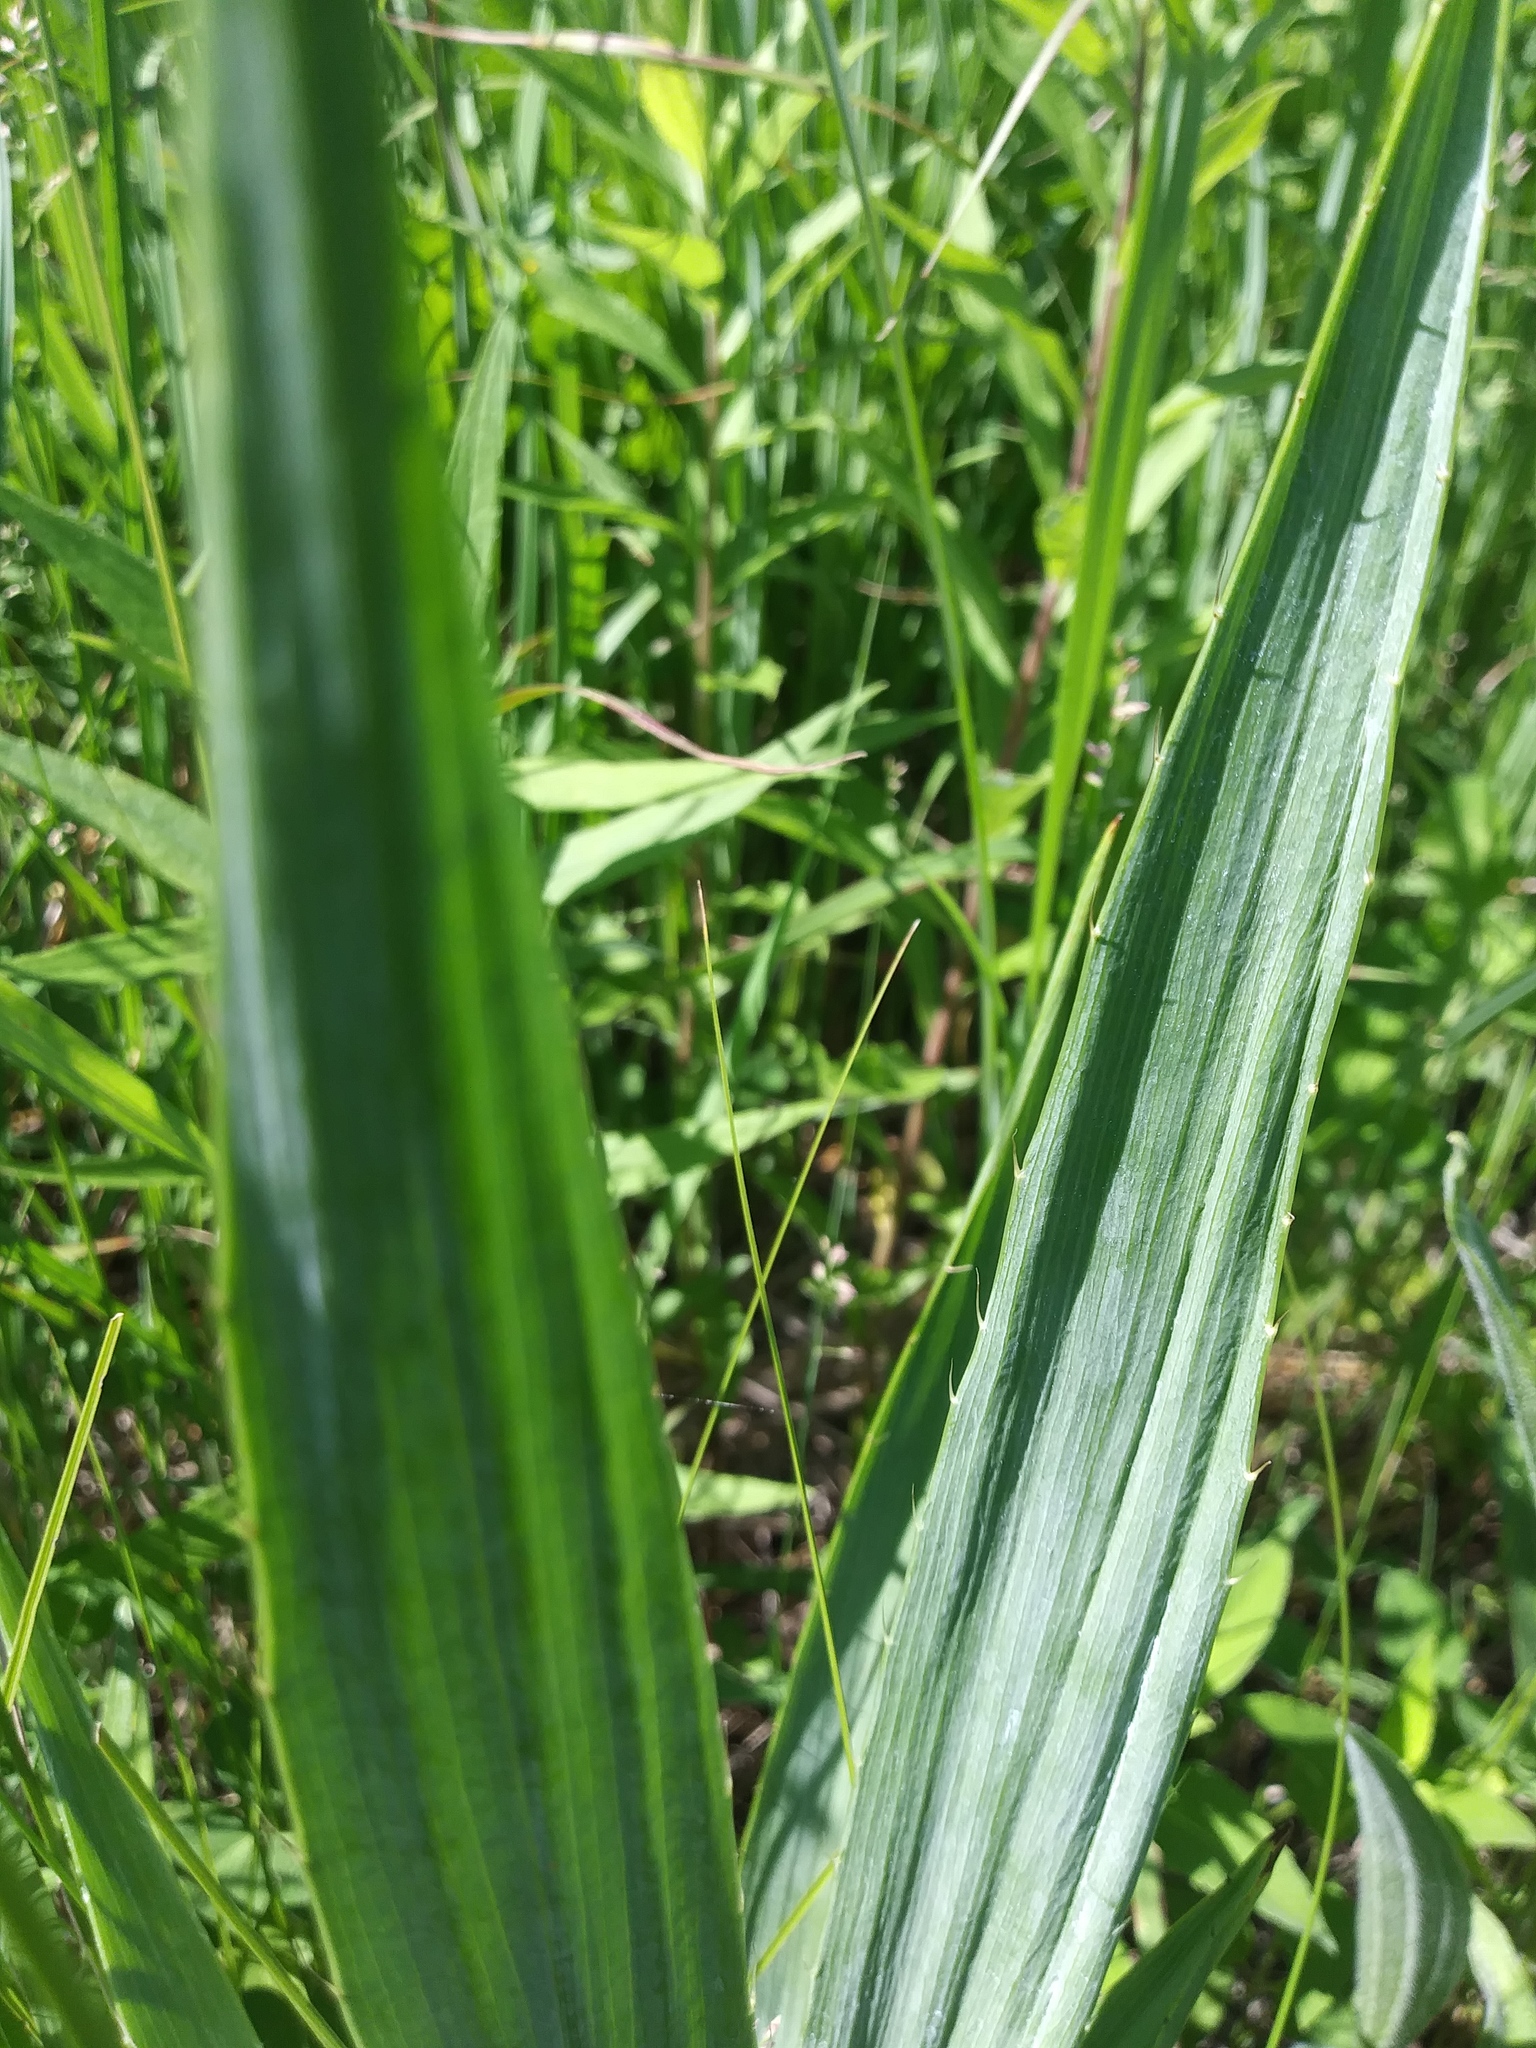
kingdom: Plantae
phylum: Tracheophyta
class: Magnoliopsida
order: Apiales
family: Apiaceae
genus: Eryngium
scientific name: Eryngium yuccifolium
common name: Button eryngo
